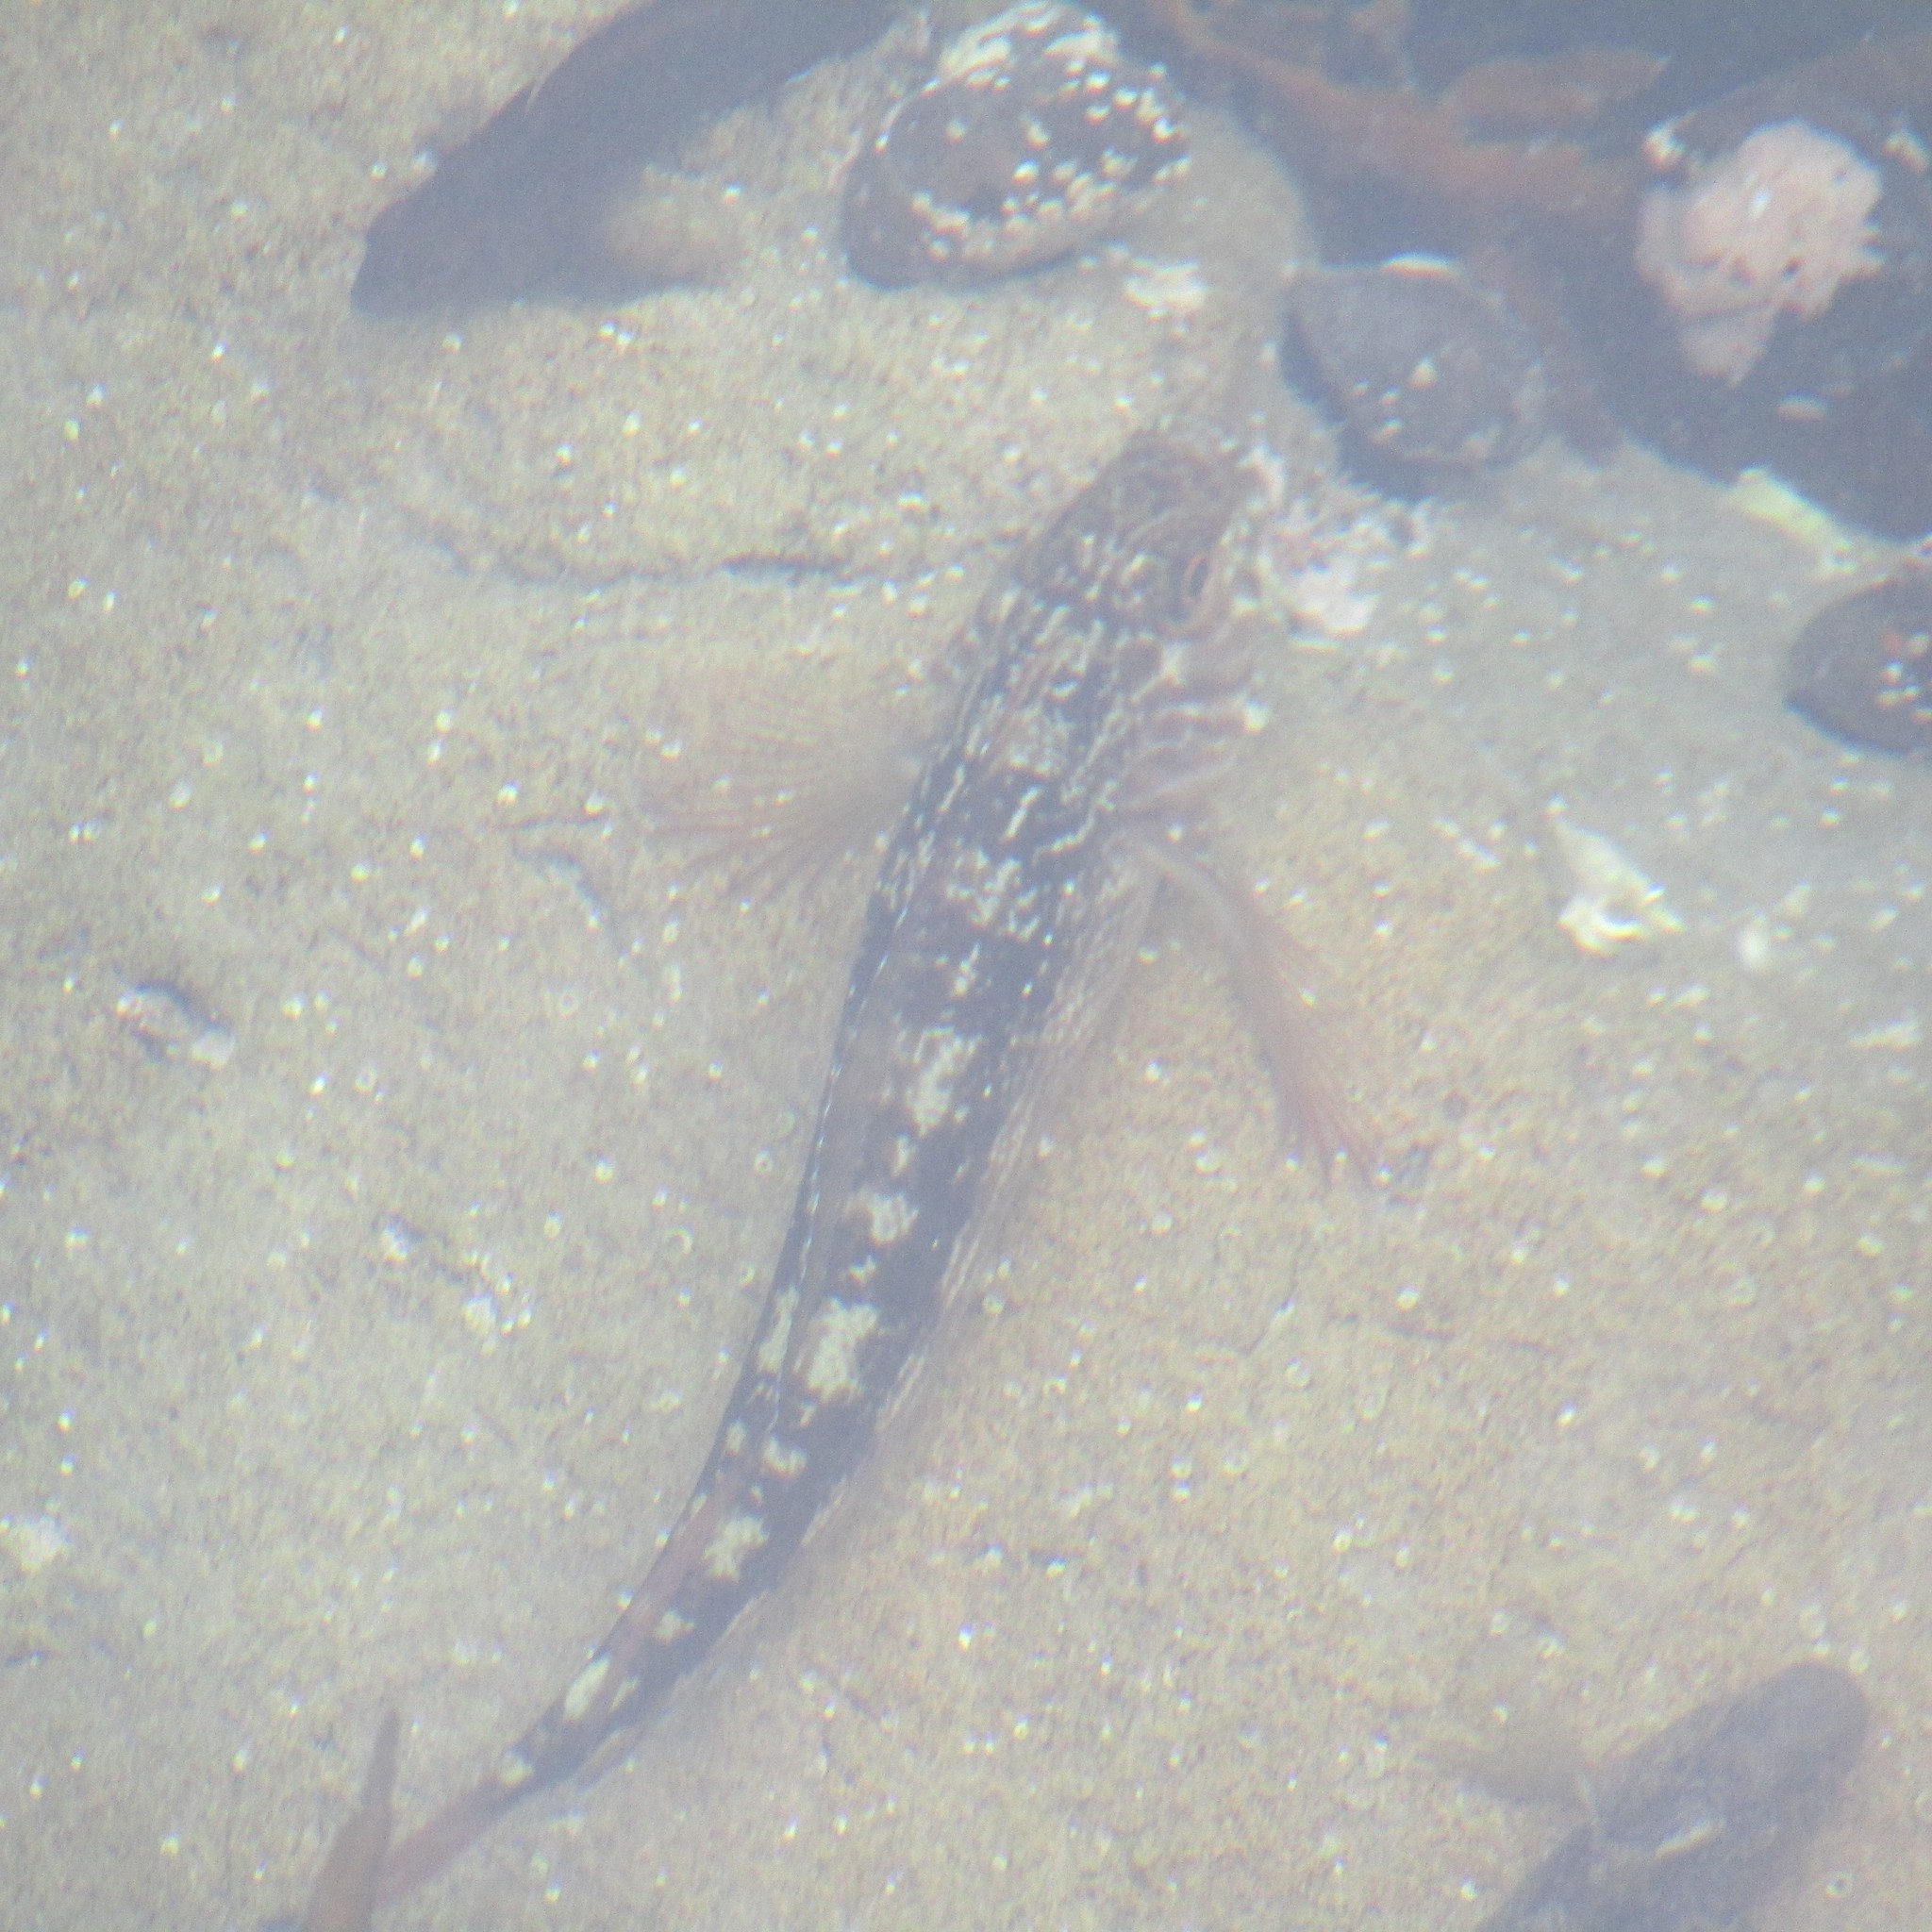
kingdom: Animalia
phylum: Chordata
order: Perciformes
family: Tripterygiidae
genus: Forsterygion
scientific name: Forsterygion varium
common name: Variable triplefin
